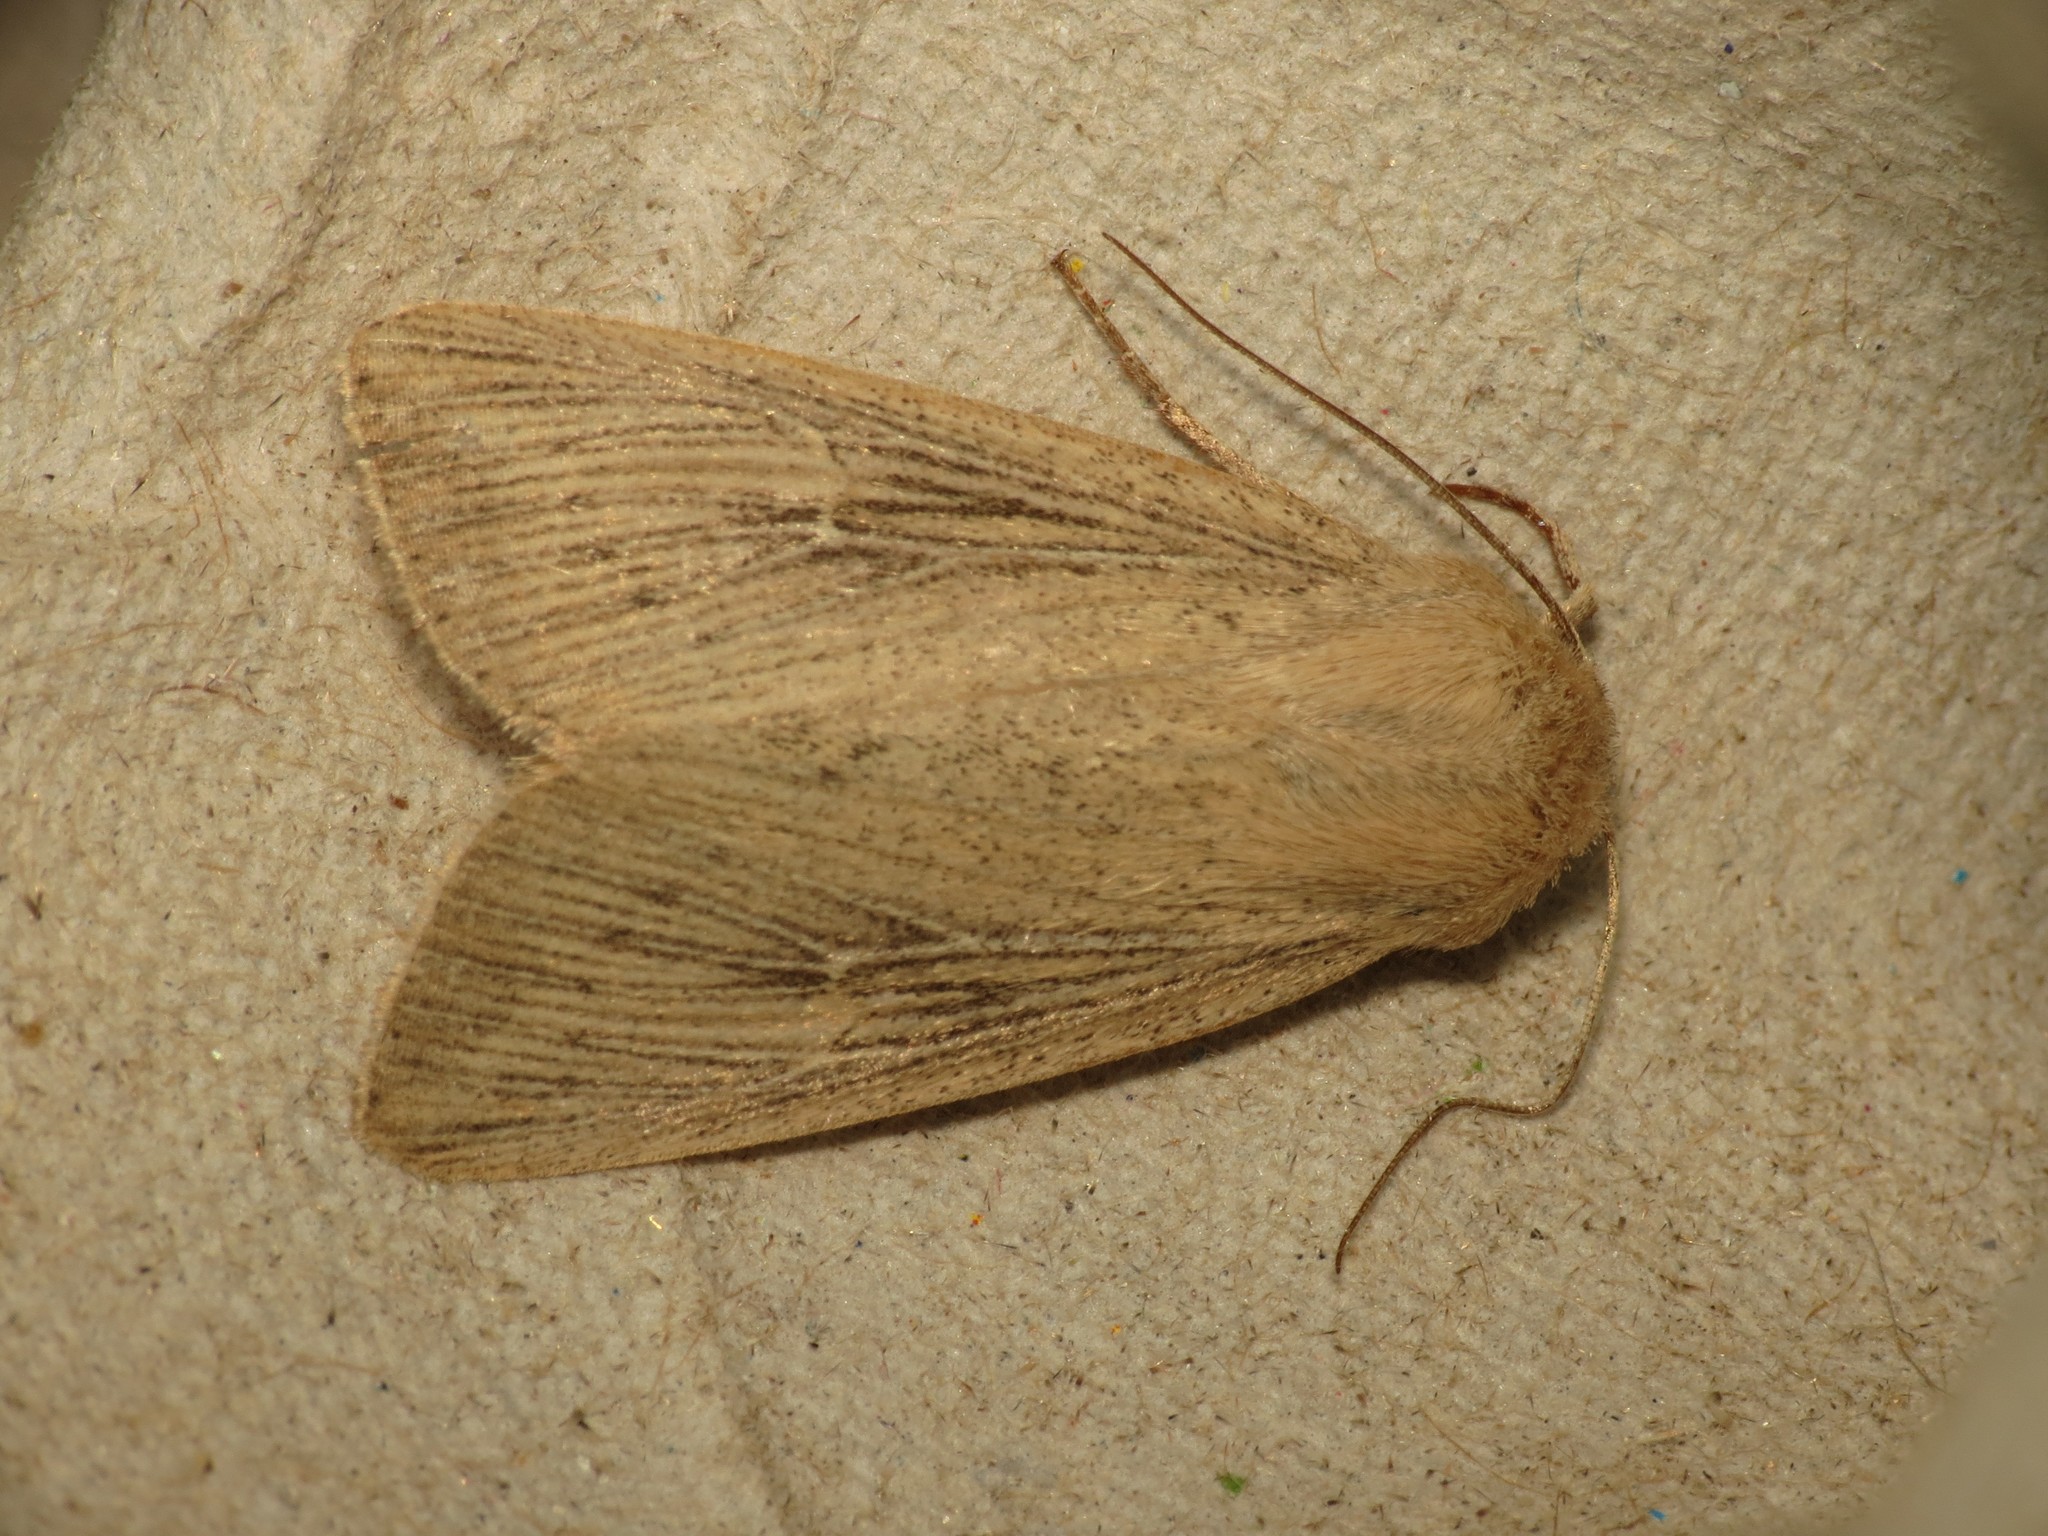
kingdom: Animalia
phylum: Arthropoda
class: Insecta
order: Lepidoptera
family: Noctuidae
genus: Leucania
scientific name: Leucania obsoleta
